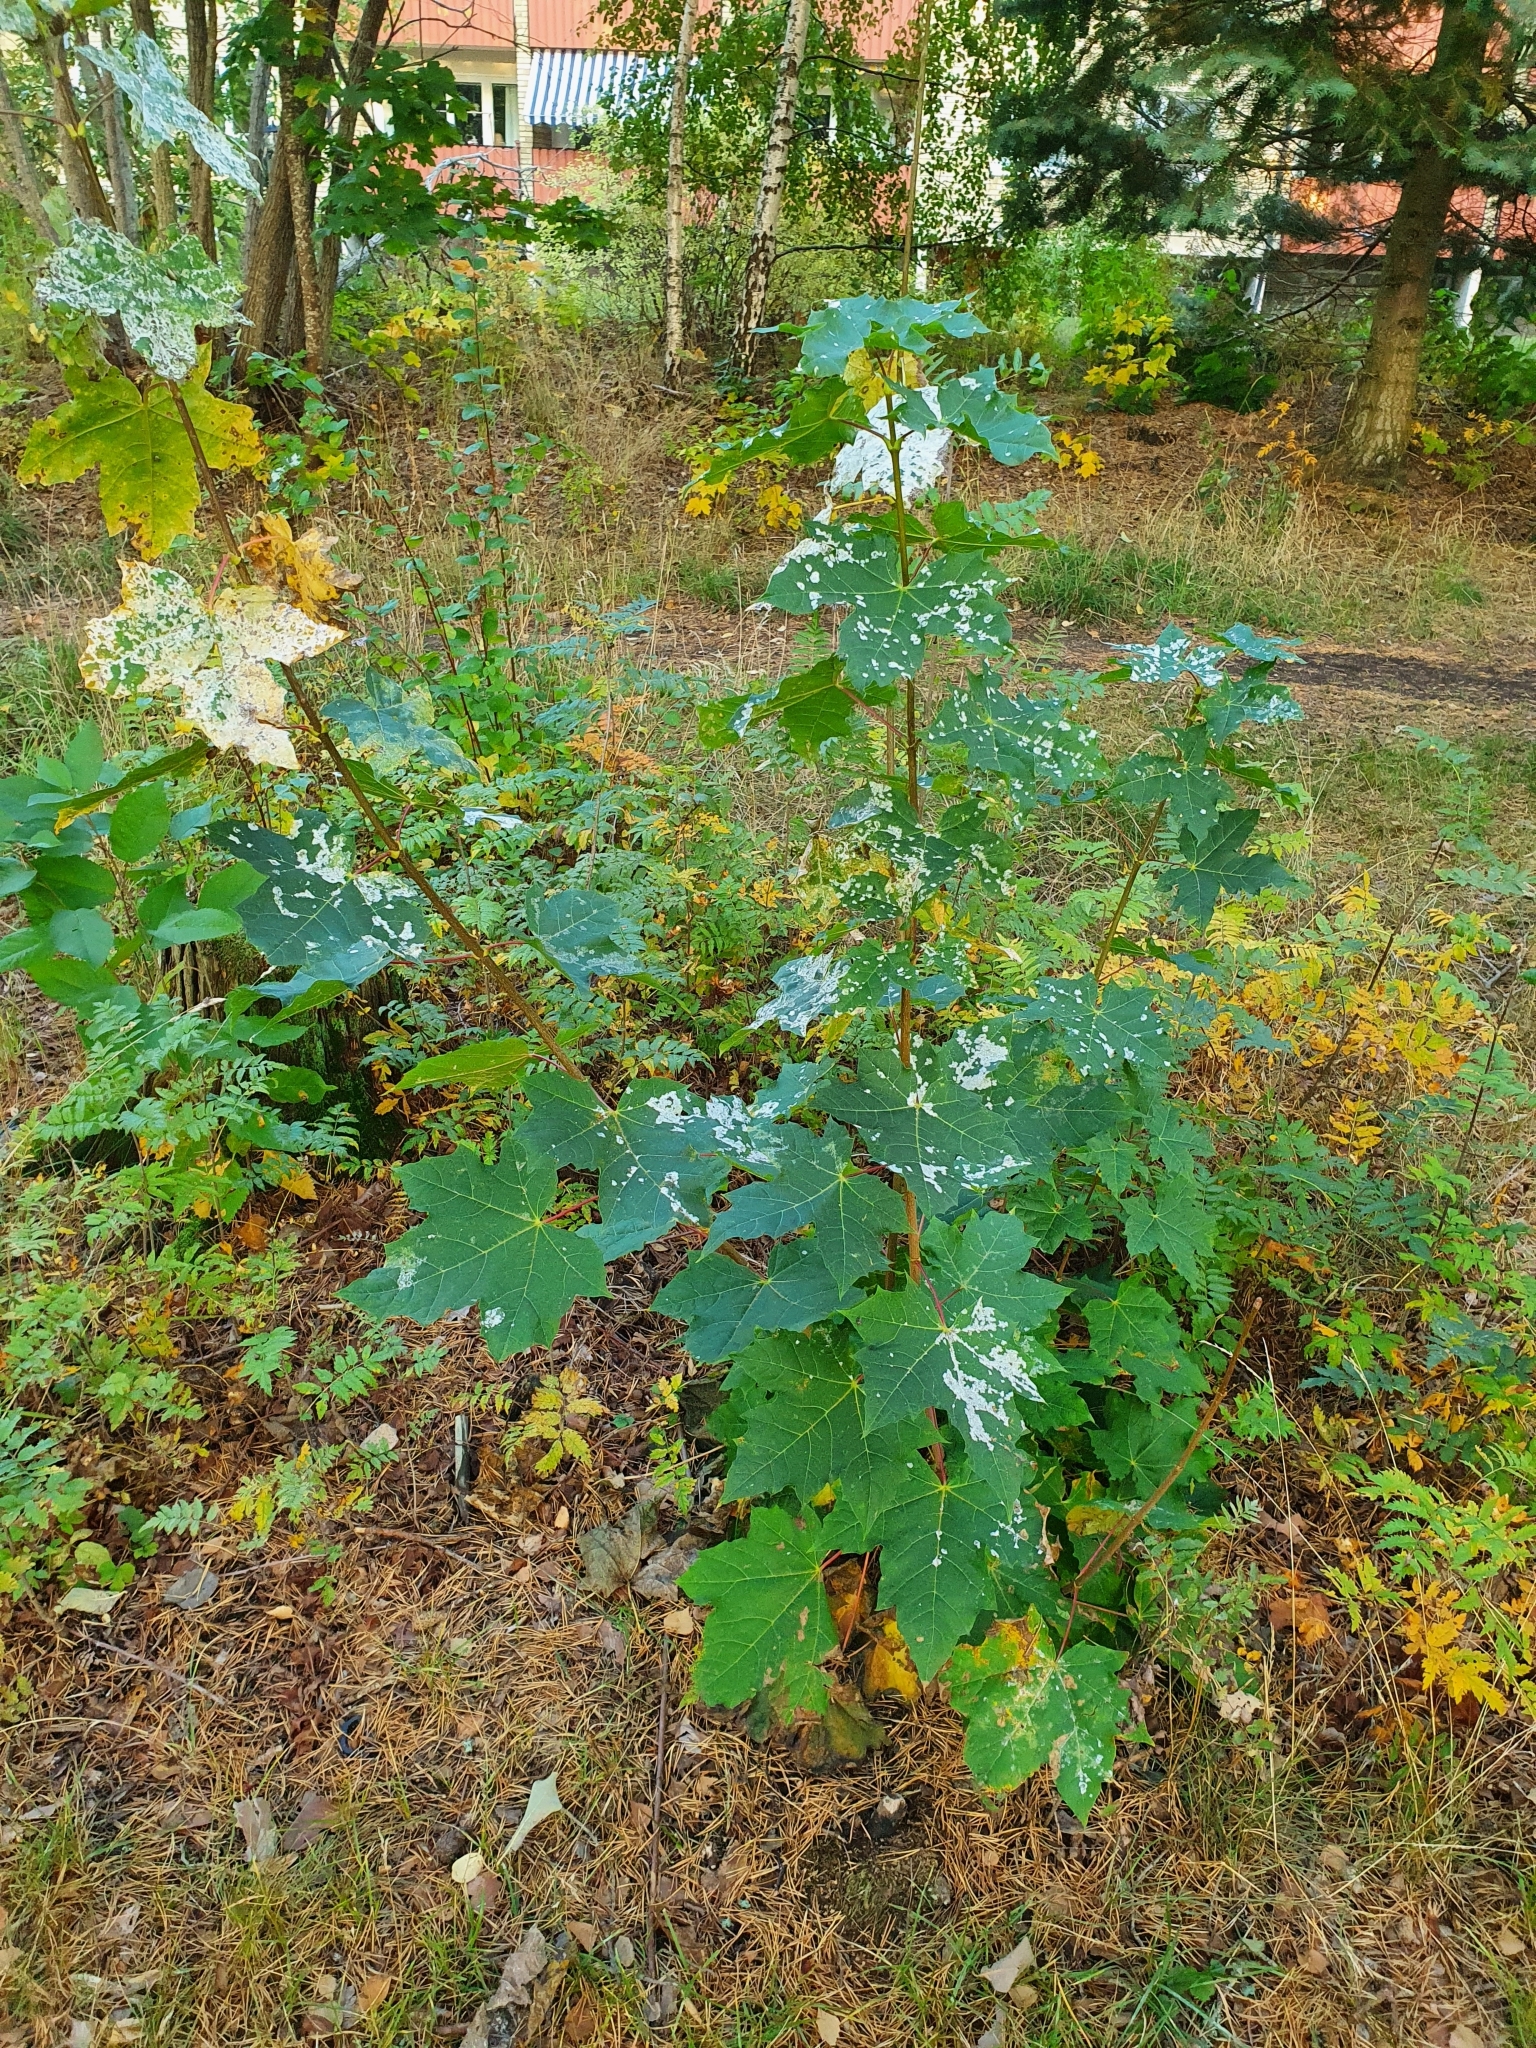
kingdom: Plantae
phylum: Tracheophyta
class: Magnoliopsida
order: Sapindales
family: Sapindaceae
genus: Acer
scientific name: Acer platanoides
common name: Norway maple
